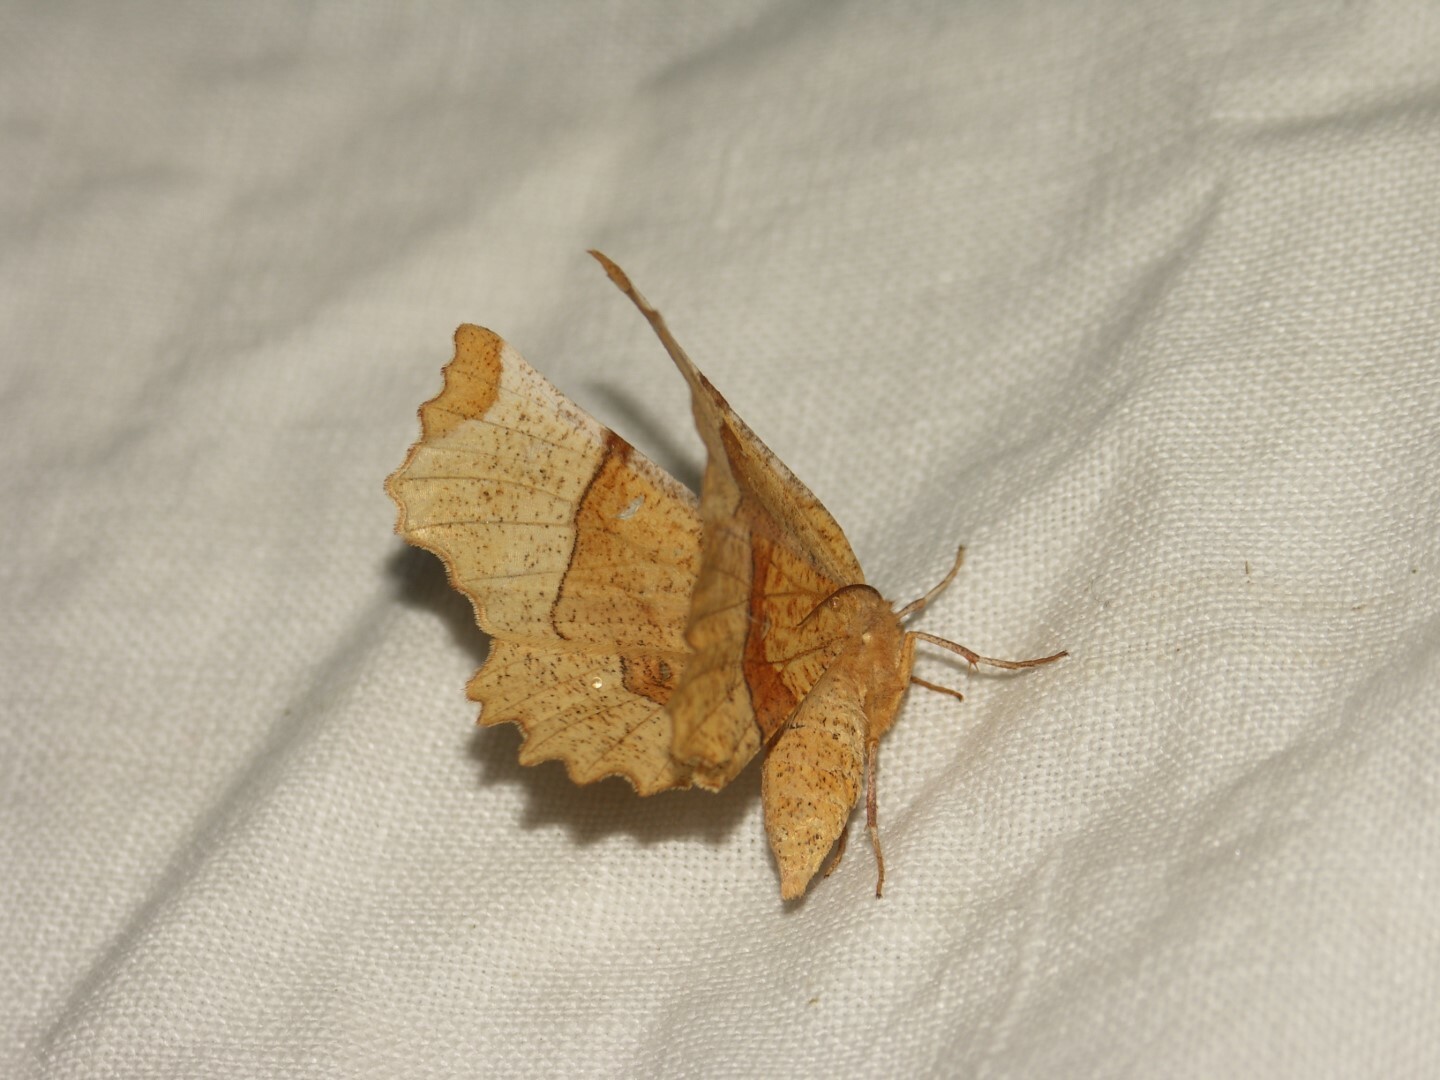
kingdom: Animalia
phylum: Arthropoda
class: Insecta
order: Lepidoptera
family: Geometridae
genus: Selenia
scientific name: Selenia lunularia
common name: Lunar thorn
